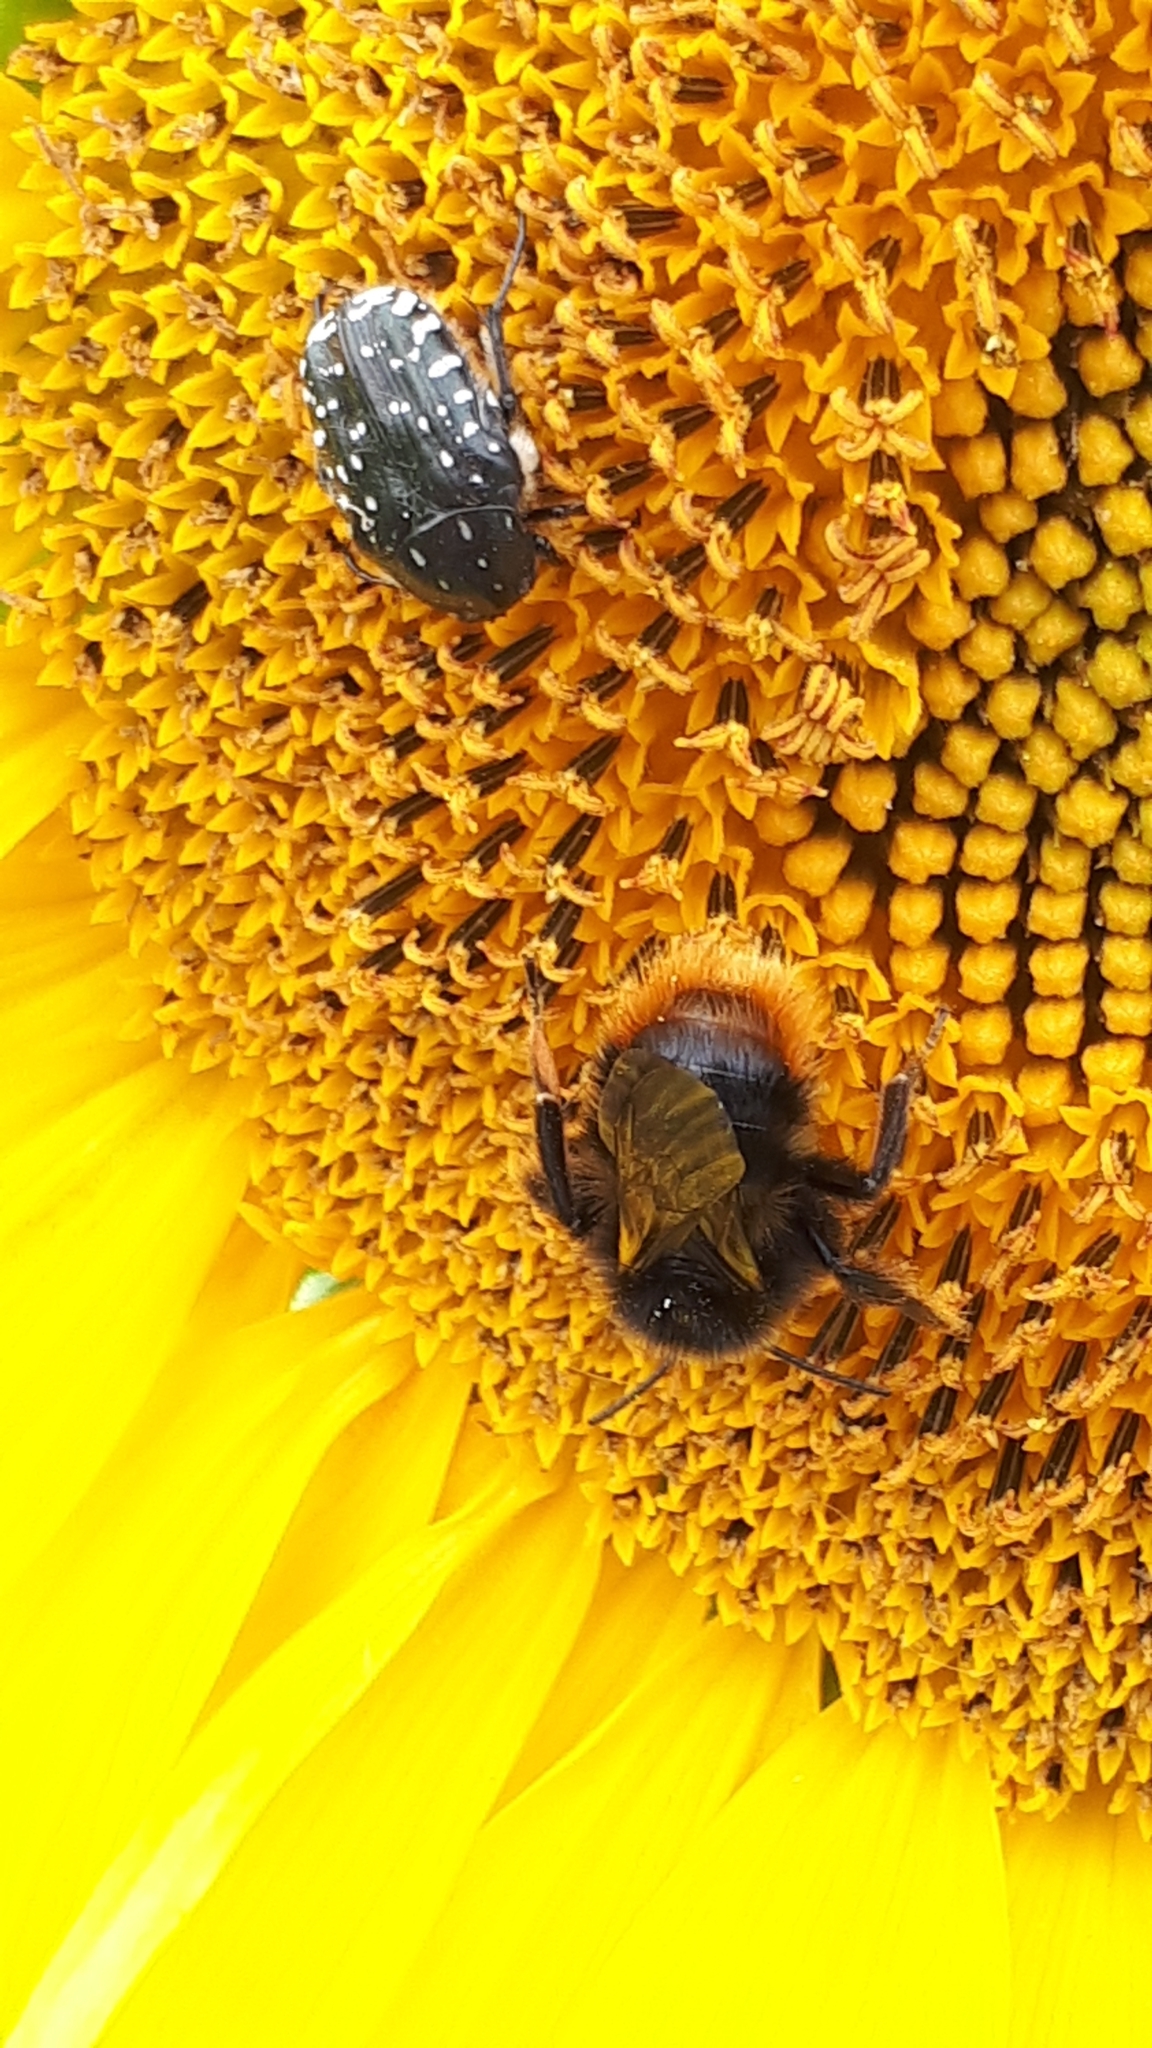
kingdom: Animalia
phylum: Arthropoda
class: Insecta
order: Coleoptera
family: Scarabaeidae
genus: Oxythyrea
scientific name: Oxythyrea funesta
